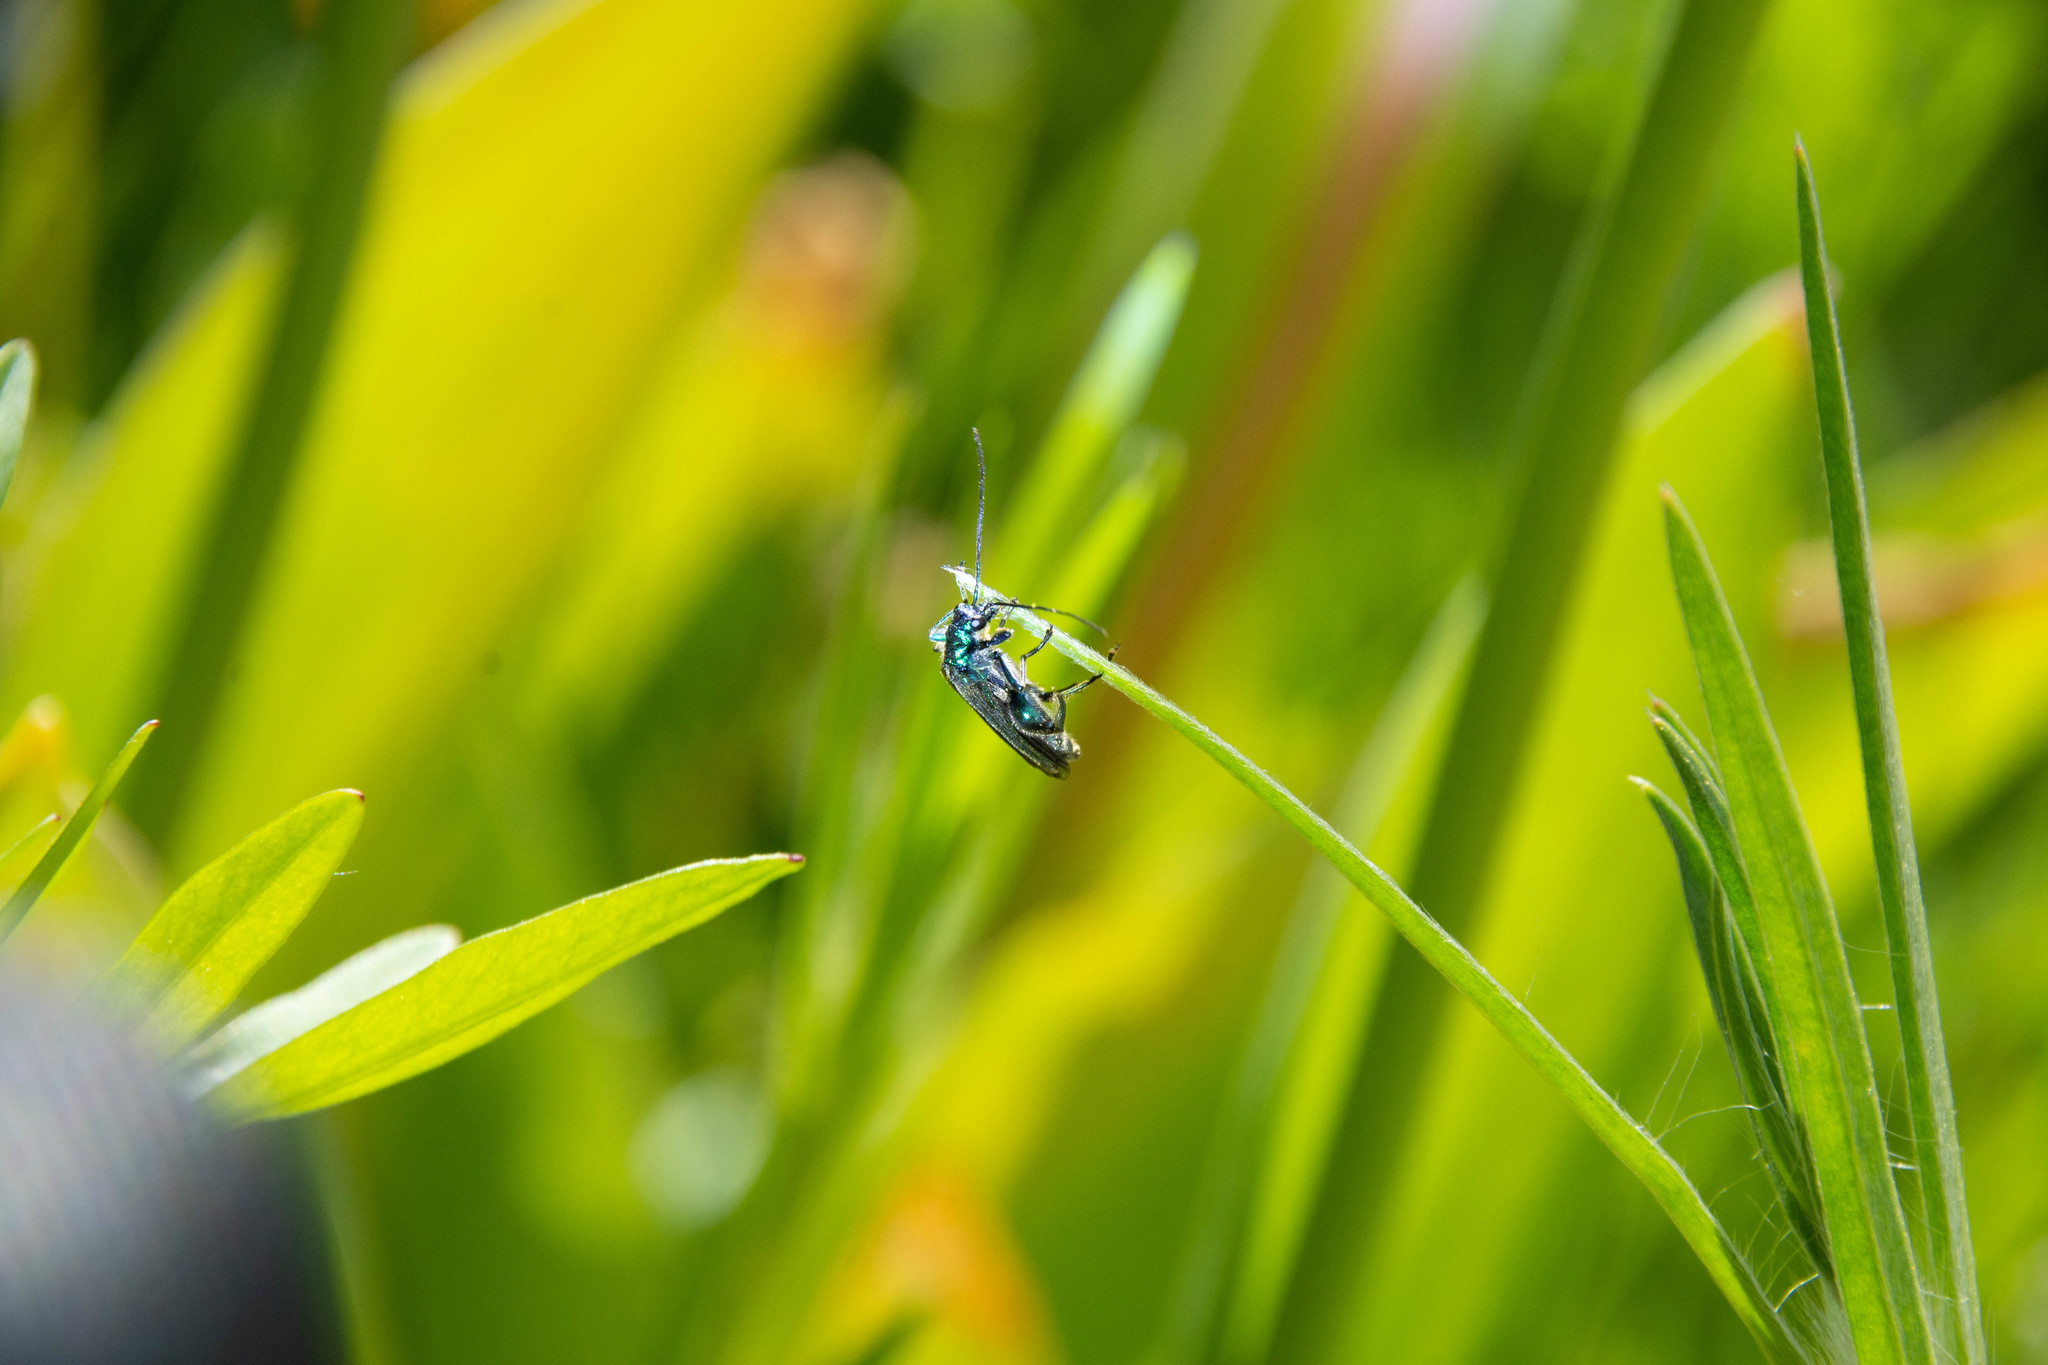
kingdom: Animalia
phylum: Arthropoda
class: Insecta
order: Coleoptera
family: Oedemeridae
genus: Oedemera
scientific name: Oedemera nobilis
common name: Swollen-thighed beetle
